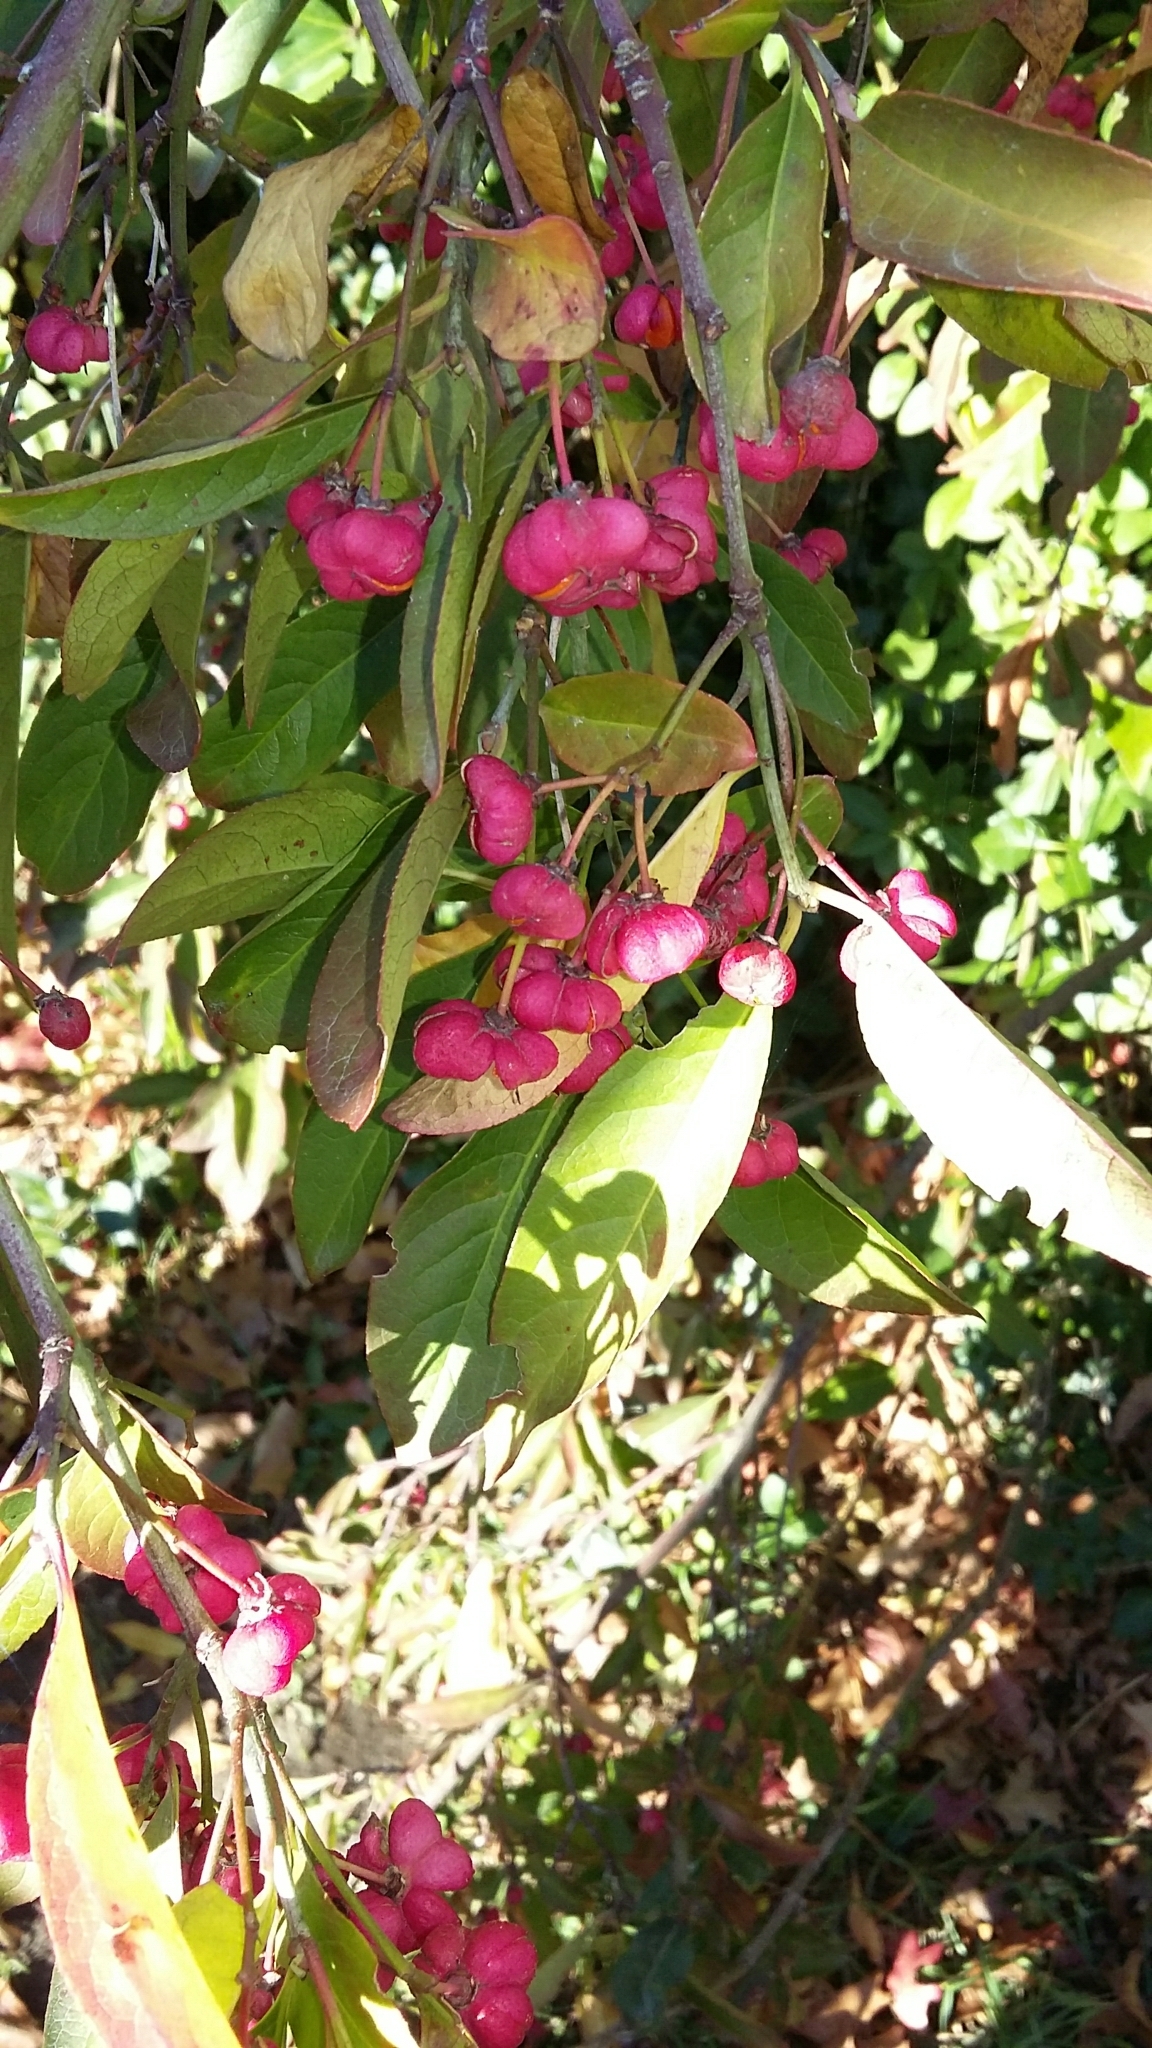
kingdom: Plantae
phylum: Tracheophyta
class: Magnoliopsida
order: Celastrales
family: Celastraceae
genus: Euonymus
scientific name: Euonymus europaeus
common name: Spindle
